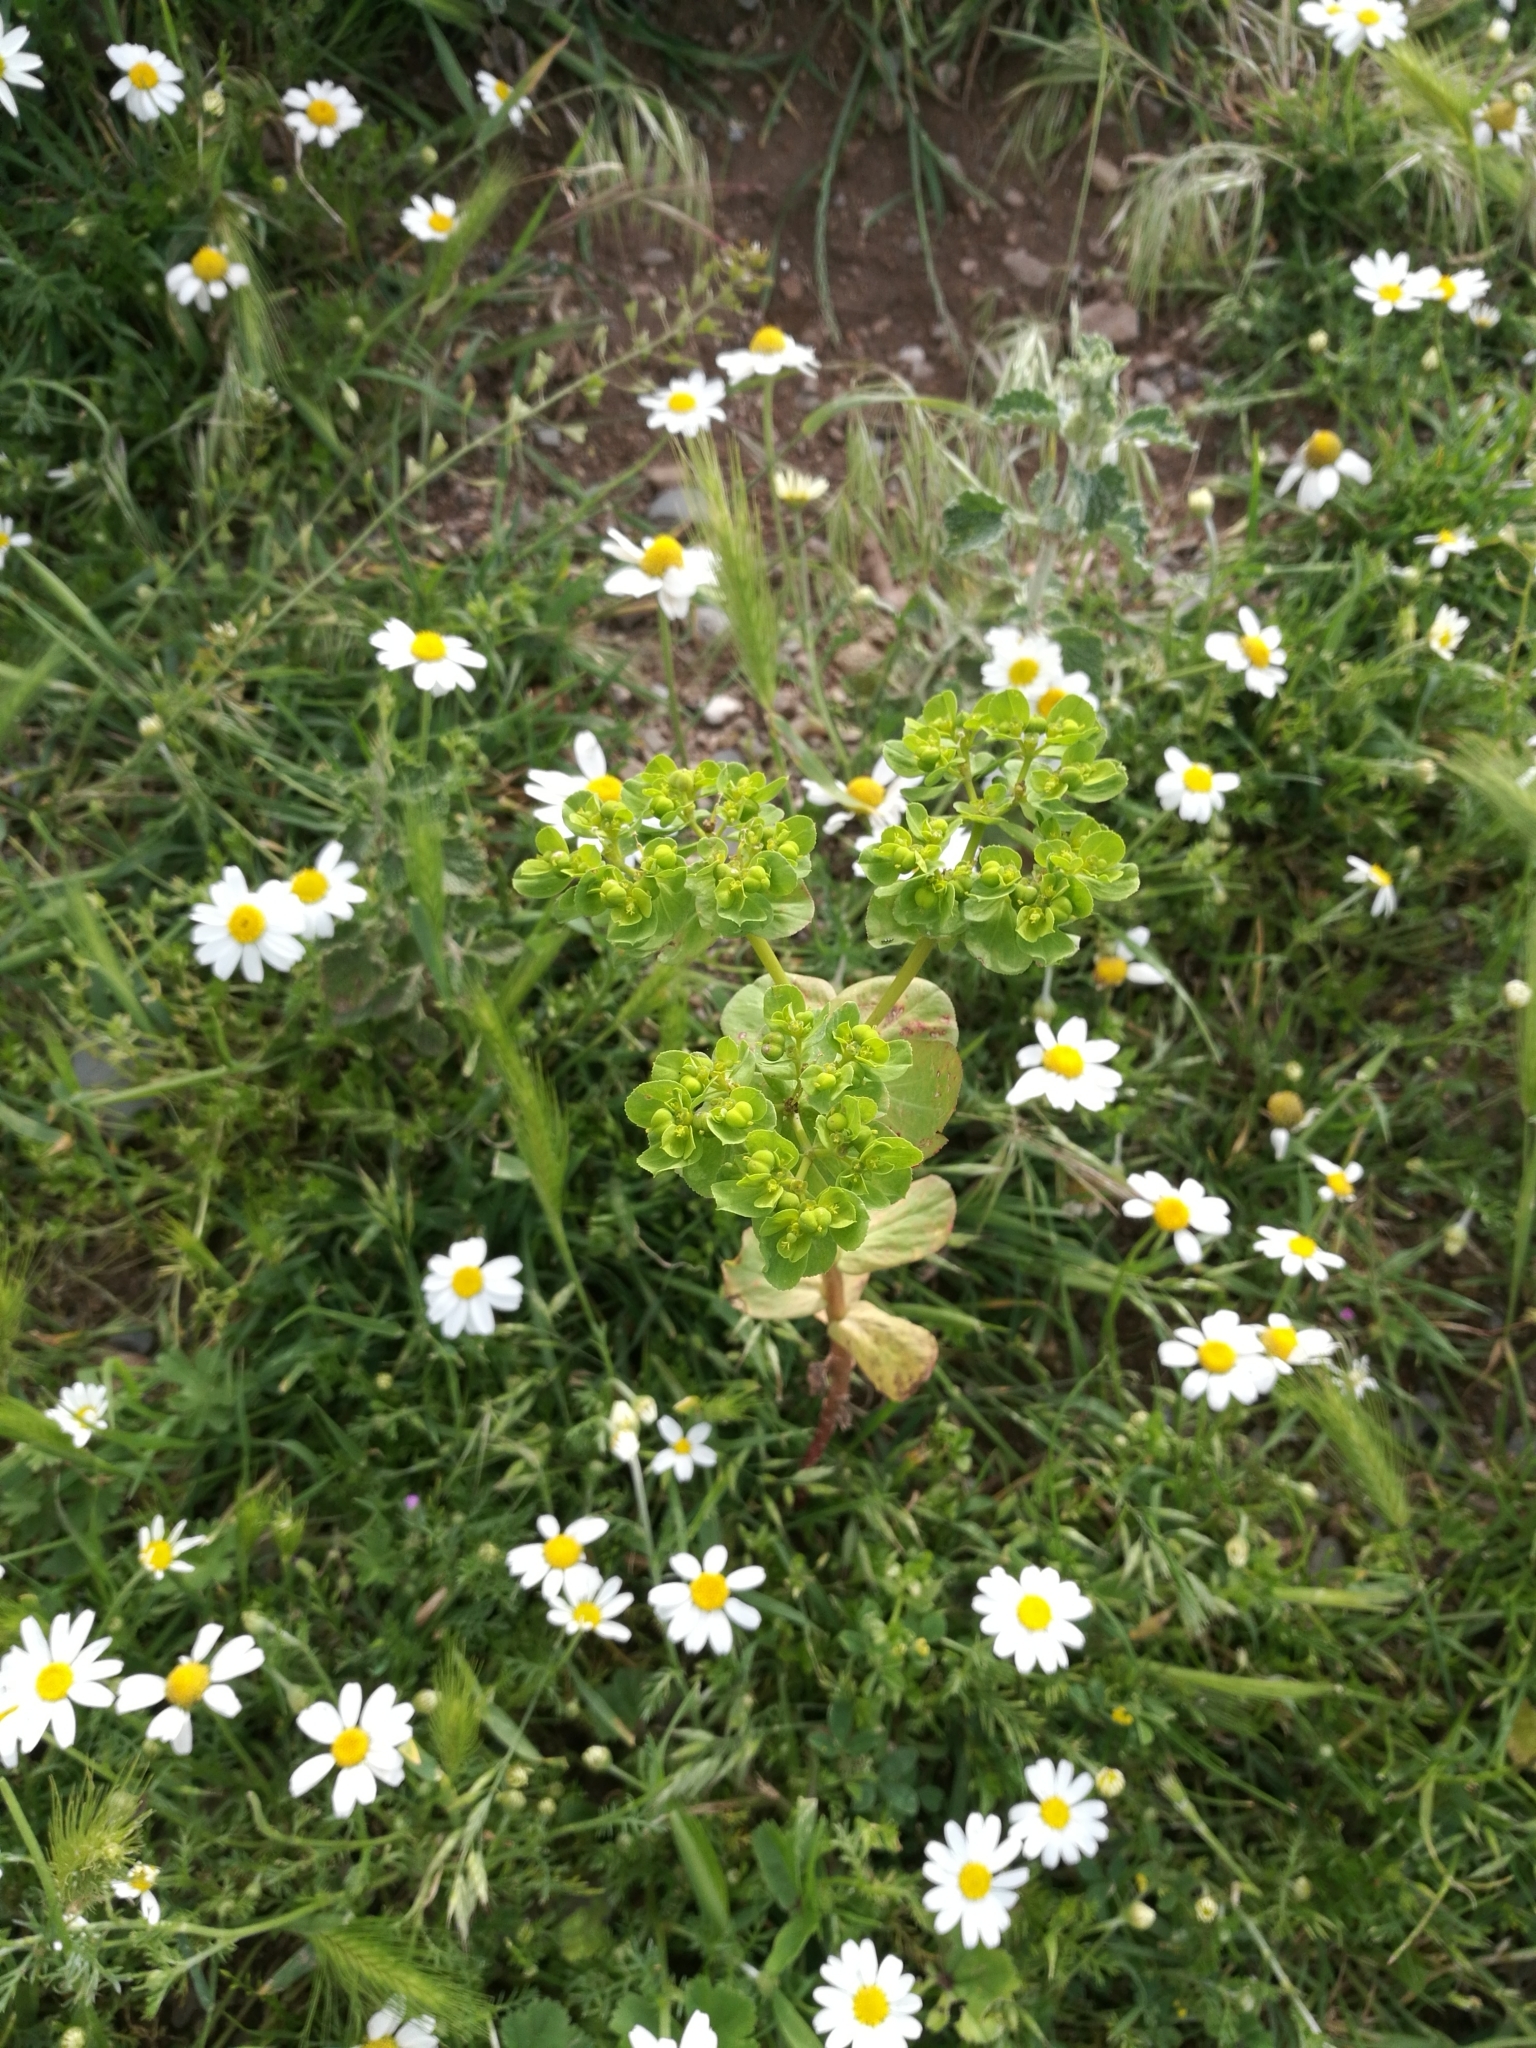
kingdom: Plantae
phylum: Tracheophyta
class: Magnoliopsida
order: Malpighiales
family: Euphorbiaceae
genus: Euphorbia
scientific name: Euphorbia helioscopia
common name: Sun spurge
